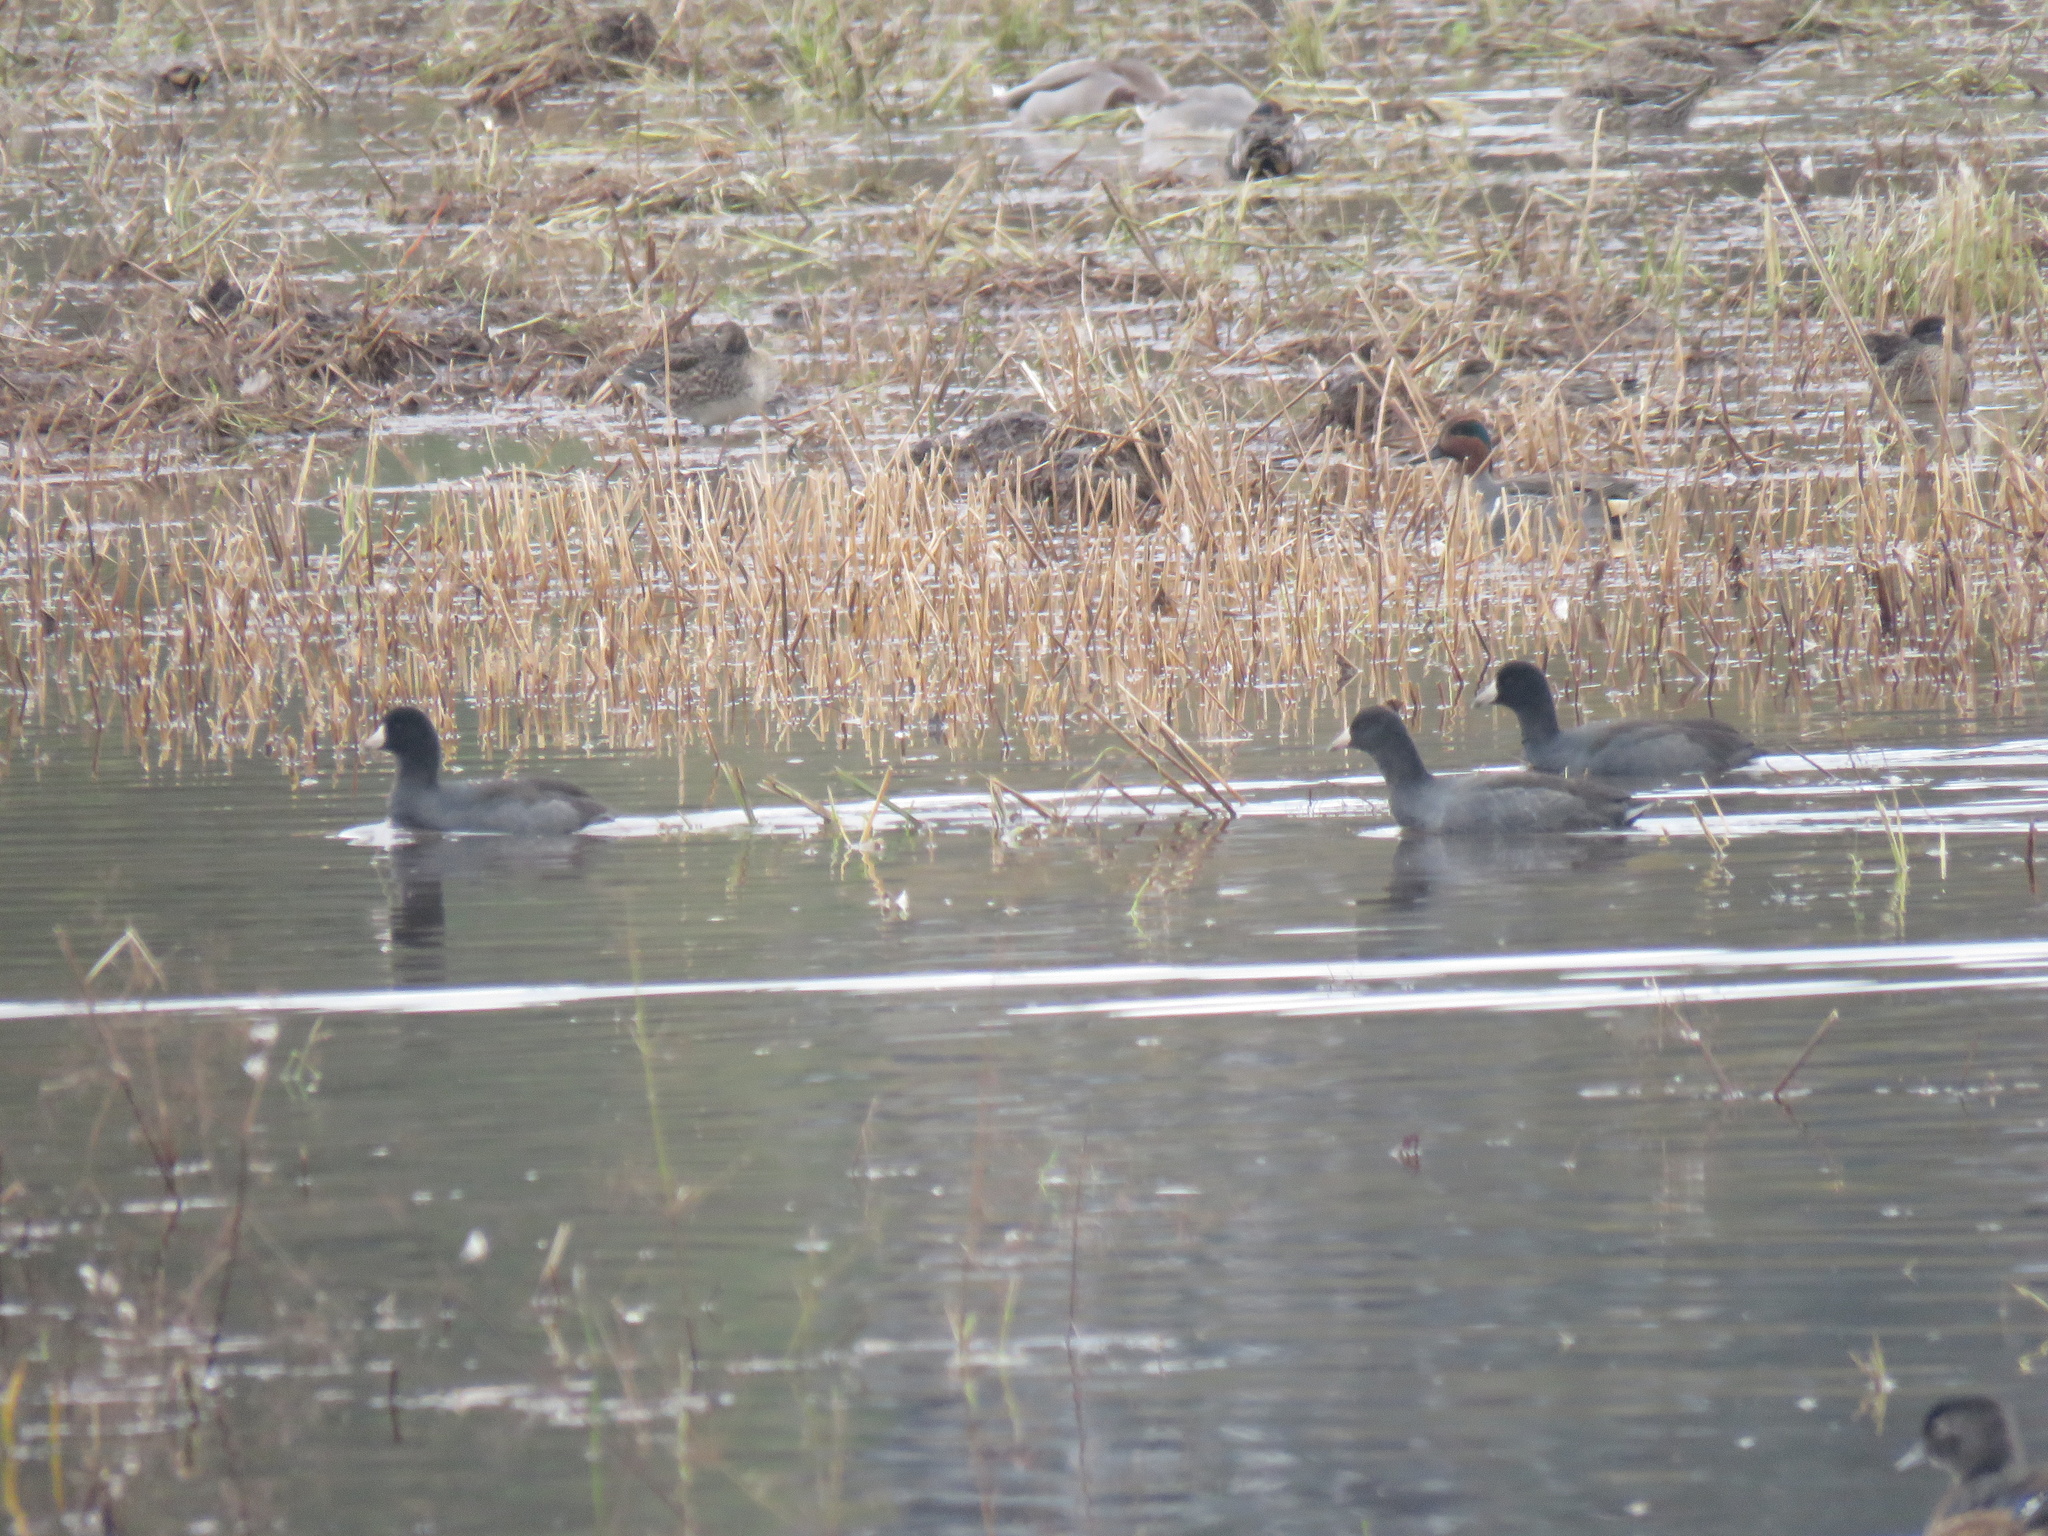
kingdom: Animalia
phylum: Chordata
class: Aves
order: Gruiformes
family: Rallidae
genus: Fulica
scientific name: Fulica americana
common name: American coot
